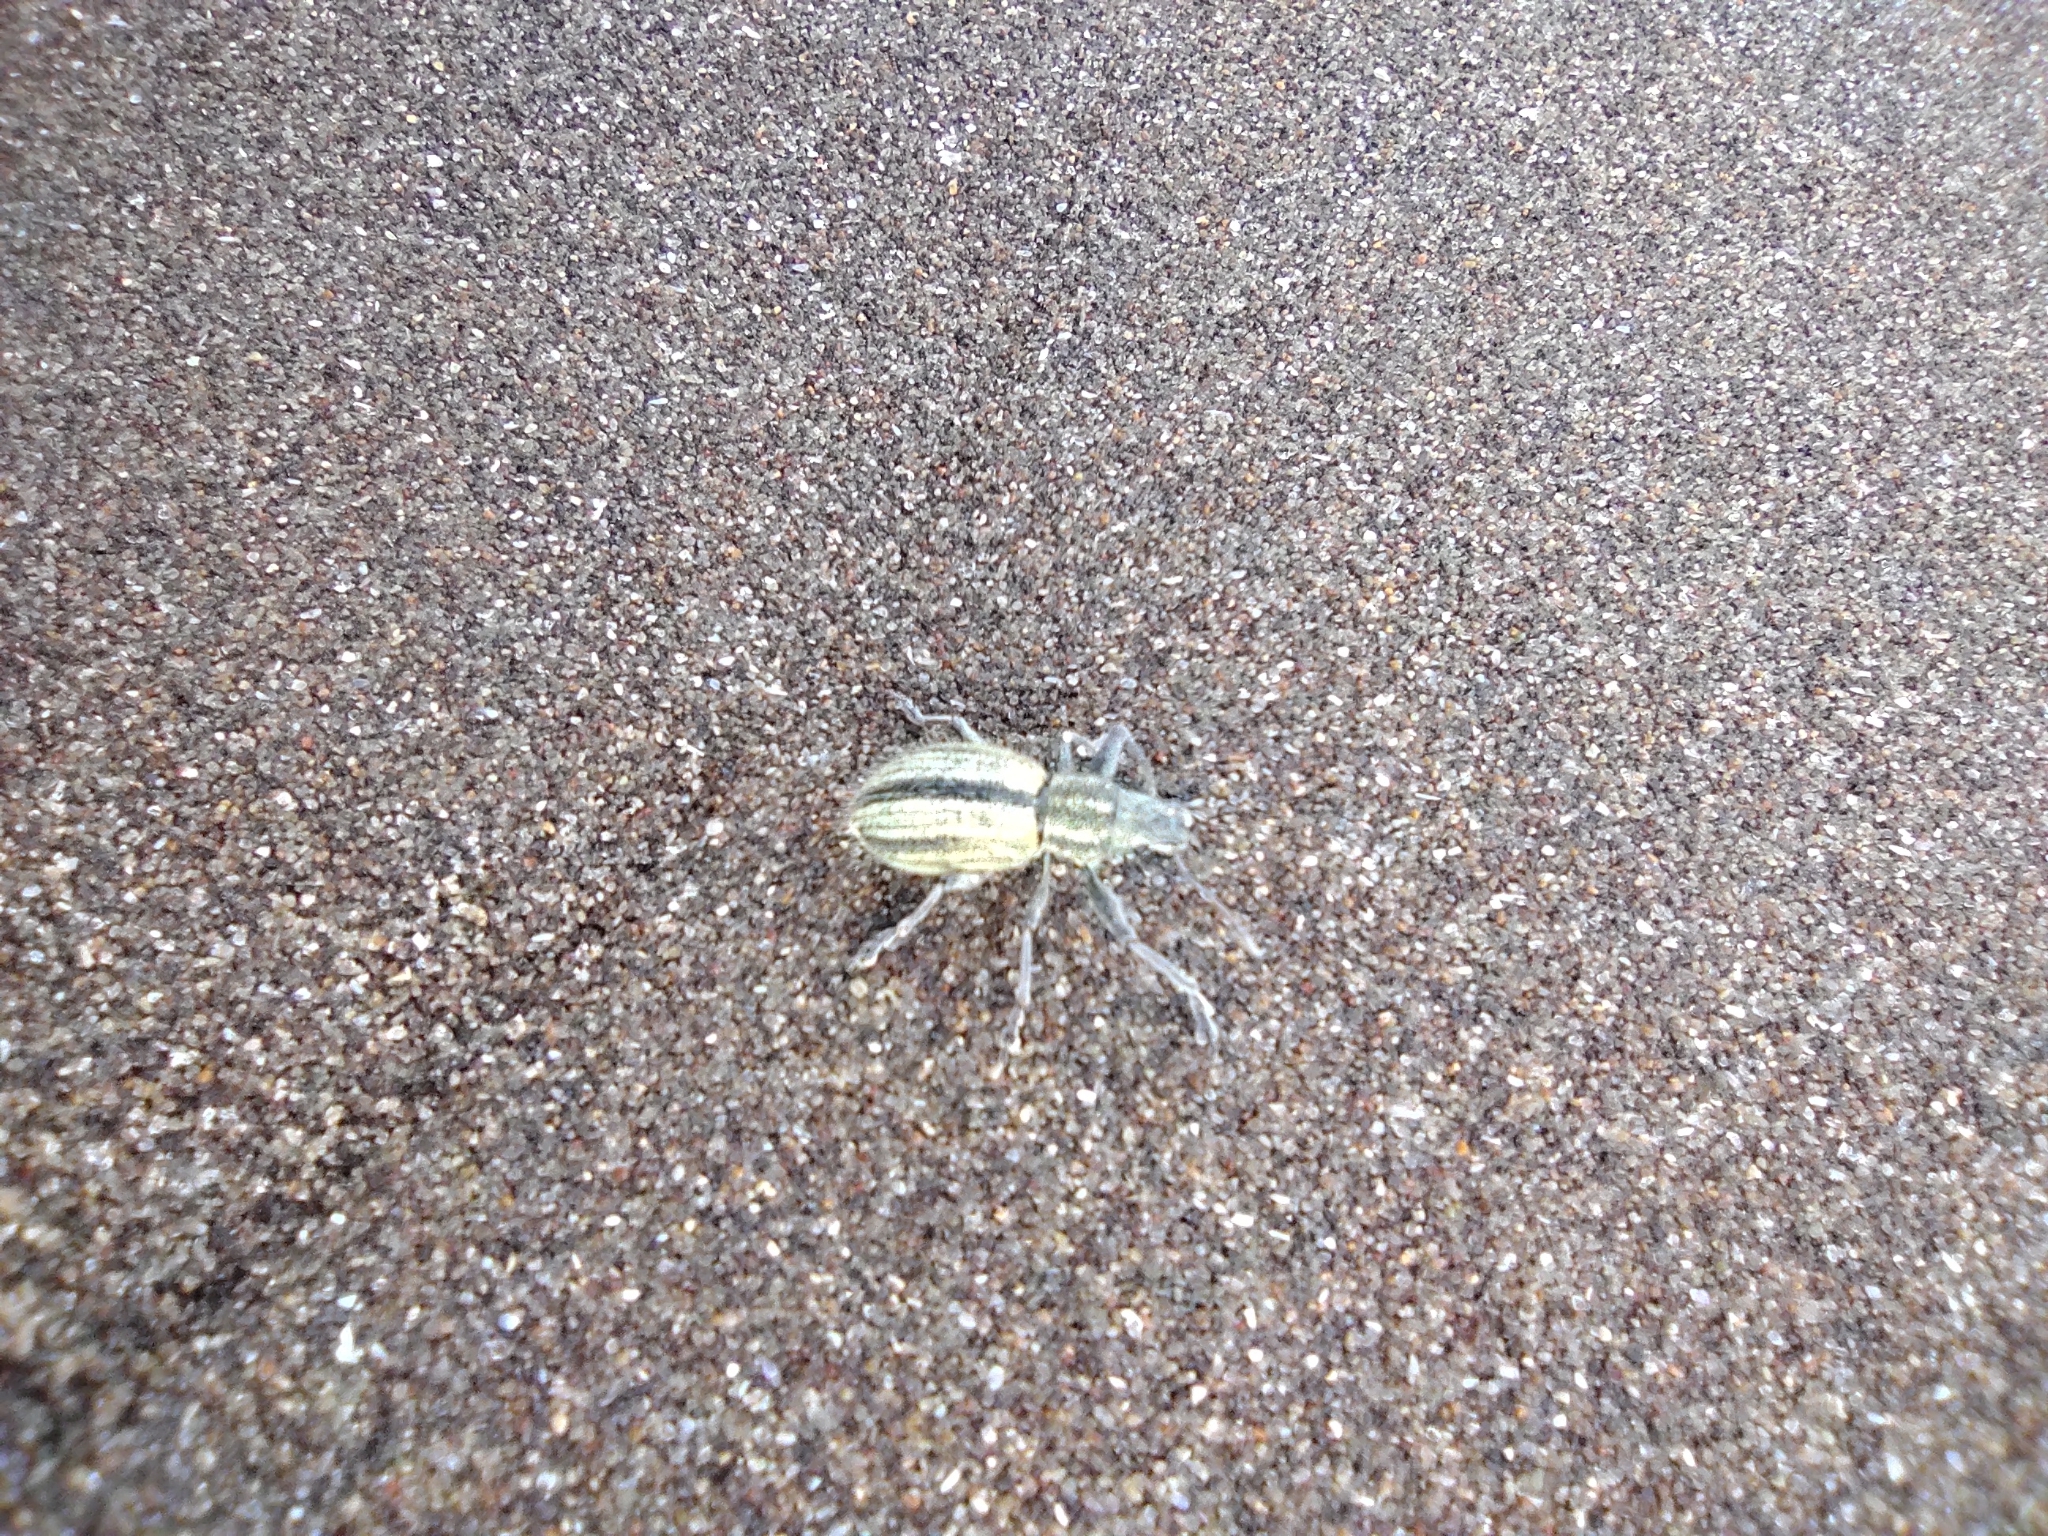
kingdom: Animalia
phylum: Arthropoda
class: Insecta
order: Coleoptera
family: Curculionidae
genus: Naupactus
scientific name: Naupactus verecundus
